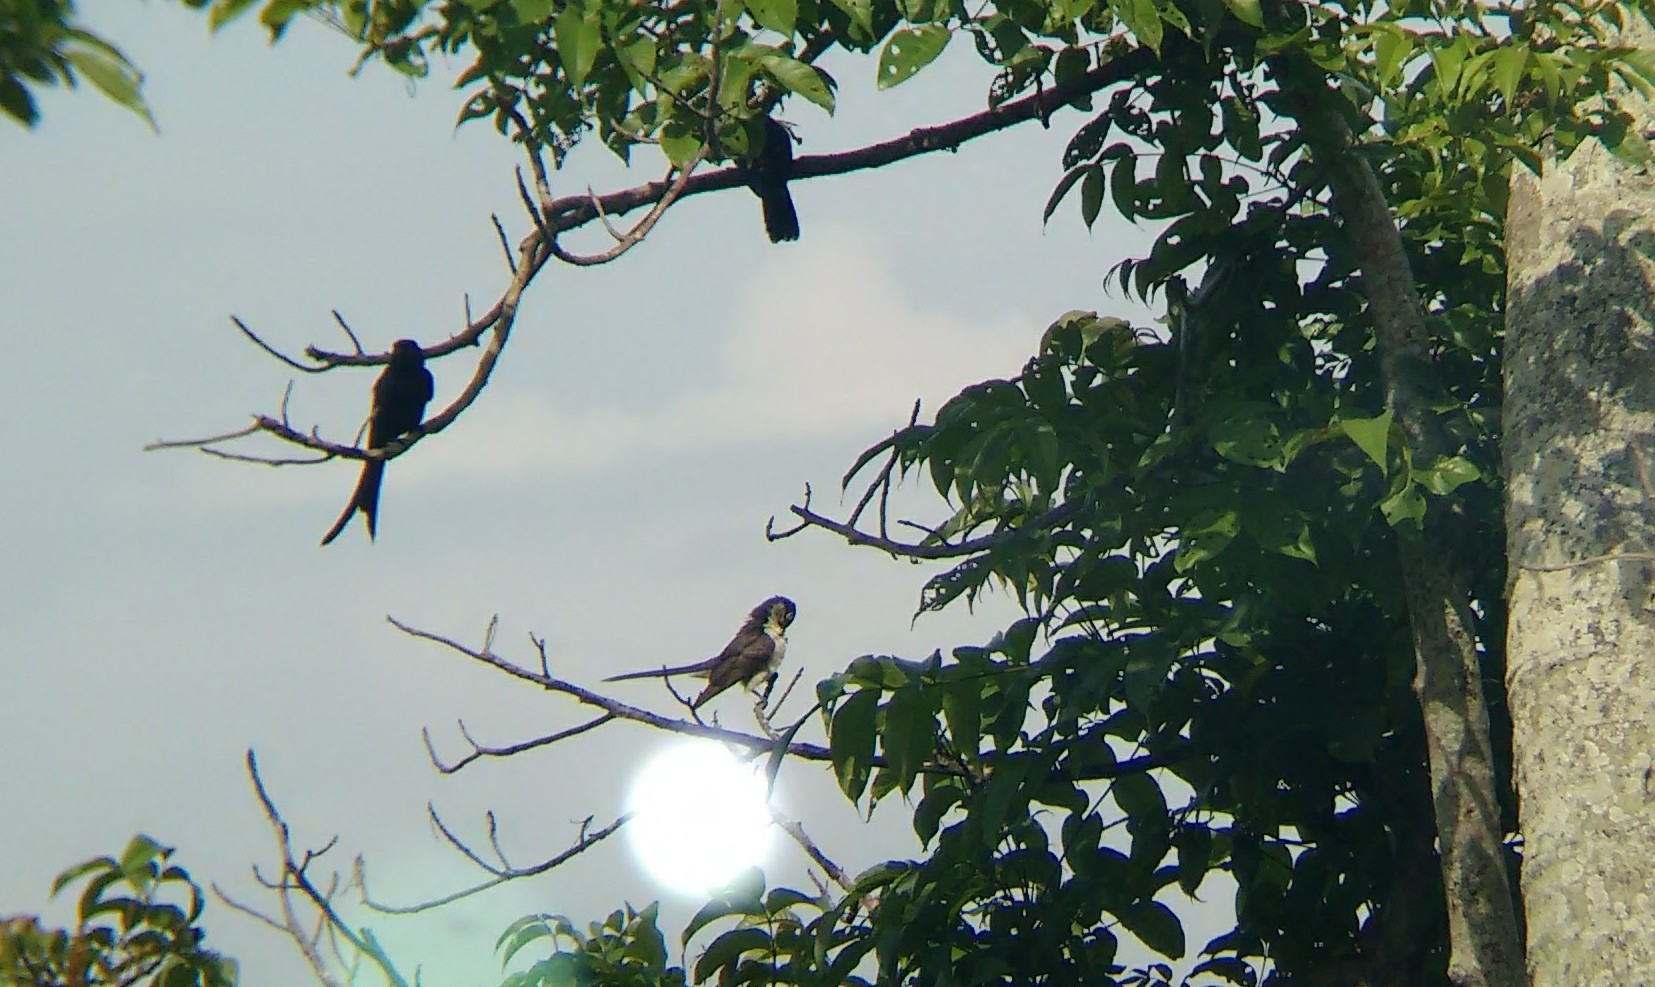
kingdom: Animalia
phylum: Chordata
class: Aves
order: Passeriformes
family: Dicruridae
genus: Dicrurus
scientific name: Dicrurus macrocercus
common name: Black drongo
